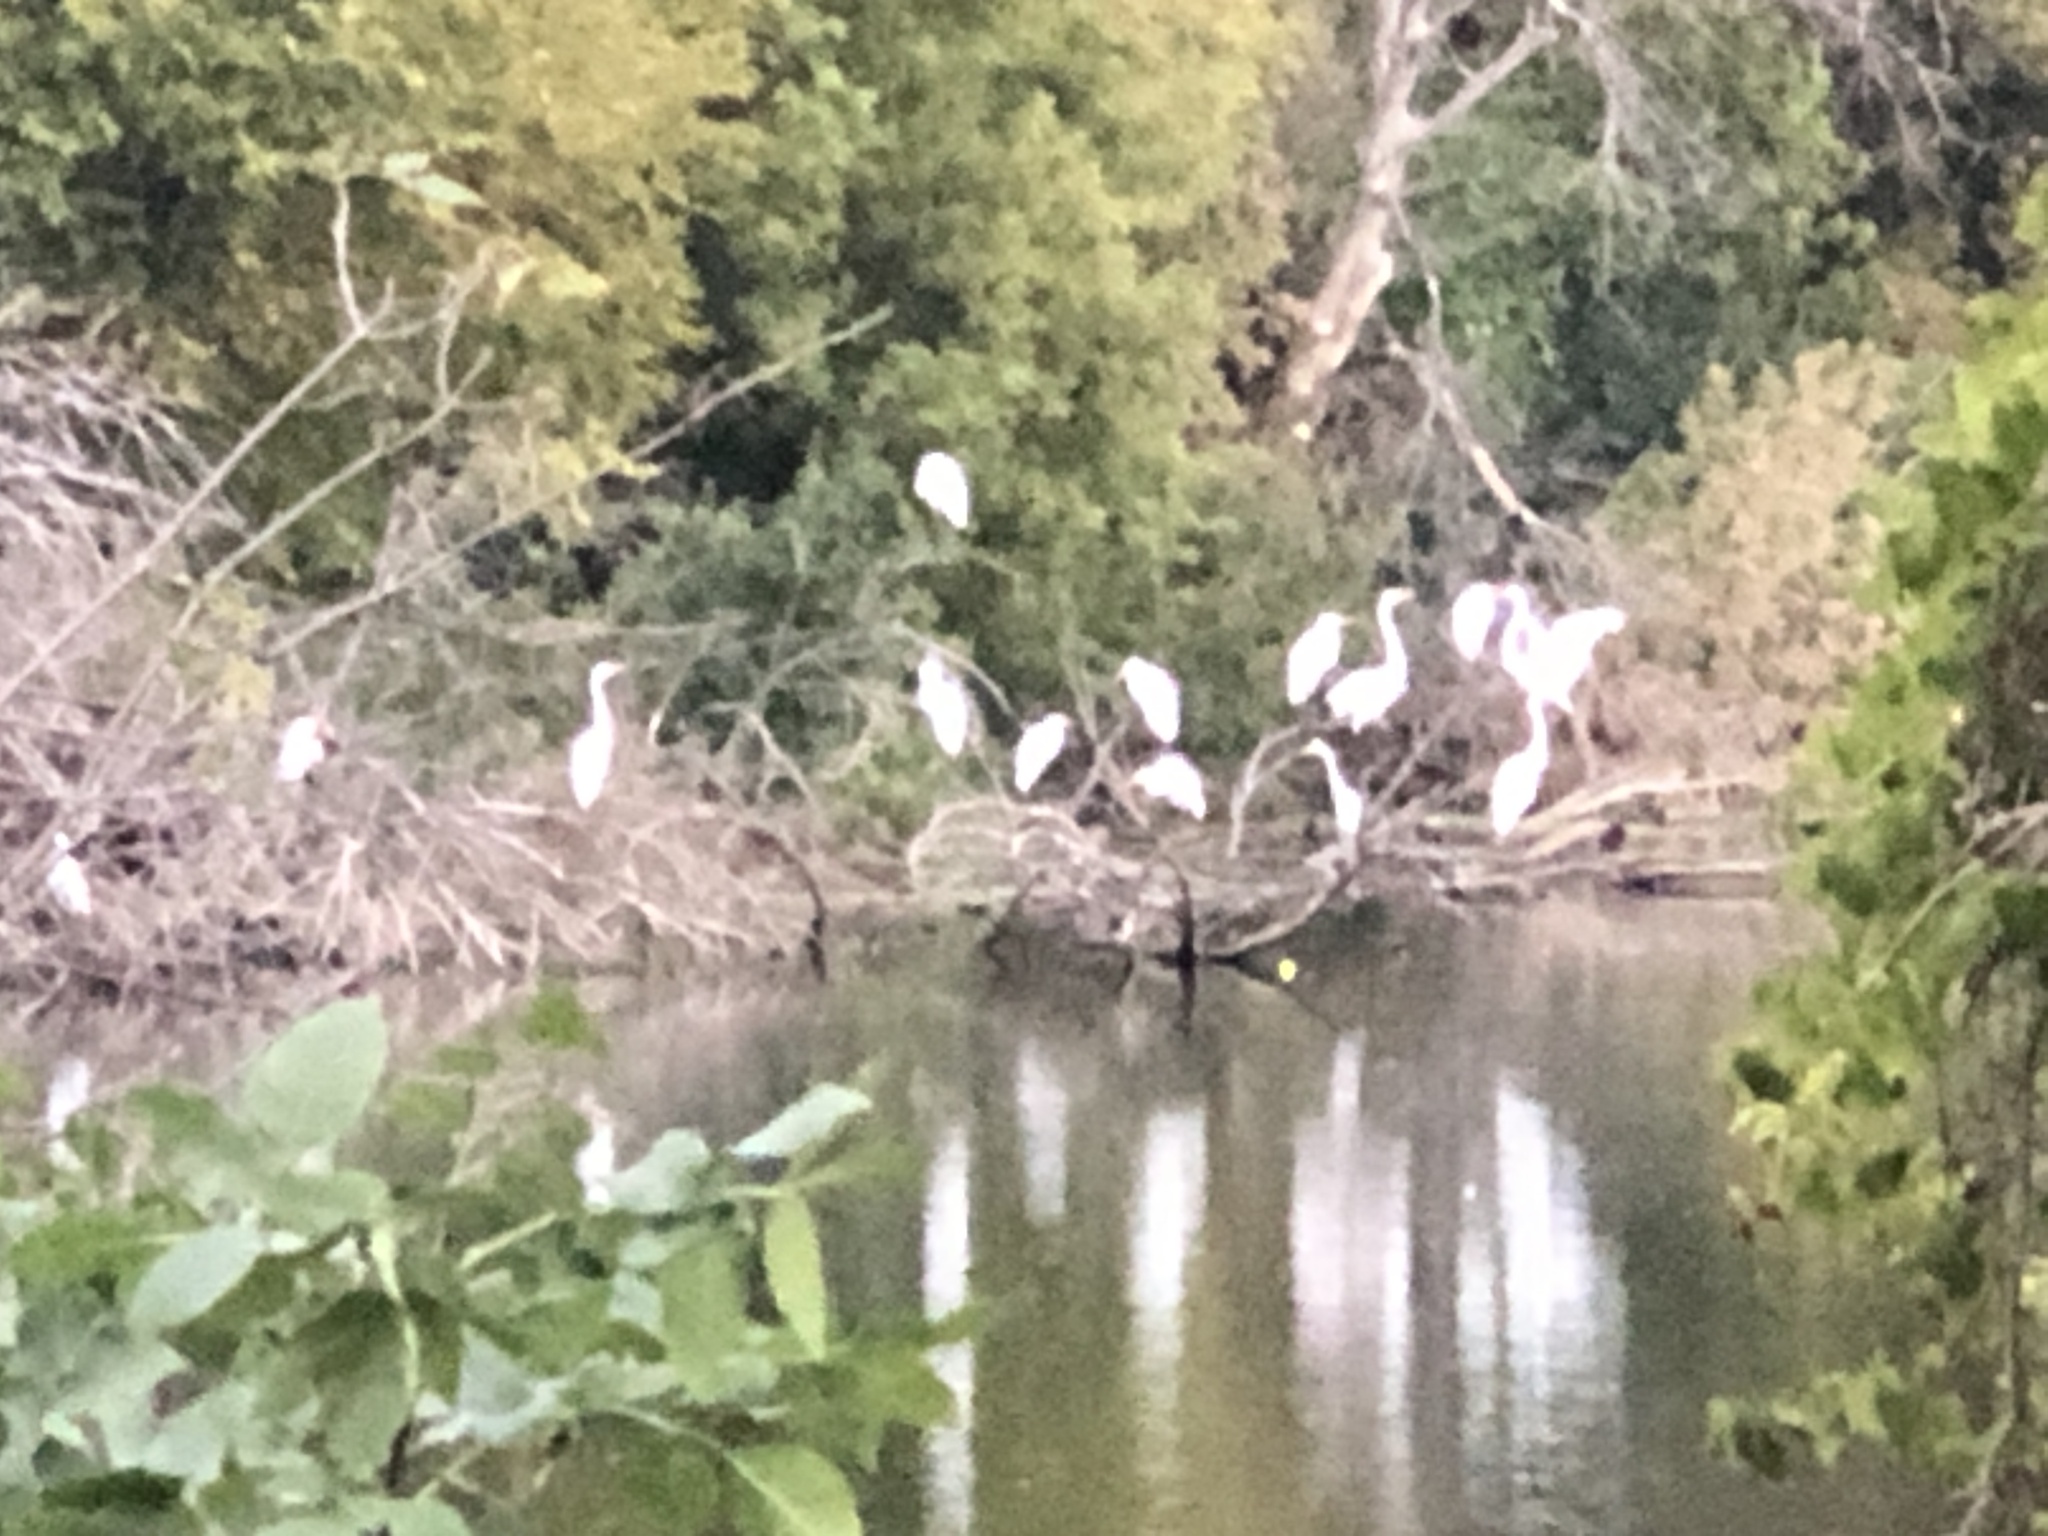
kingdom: Animalia
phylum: Chordata
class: Aves
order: Pelecaniformes
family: Ardeidae
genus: Ardea
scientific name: Ardea alba
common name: Great egret
